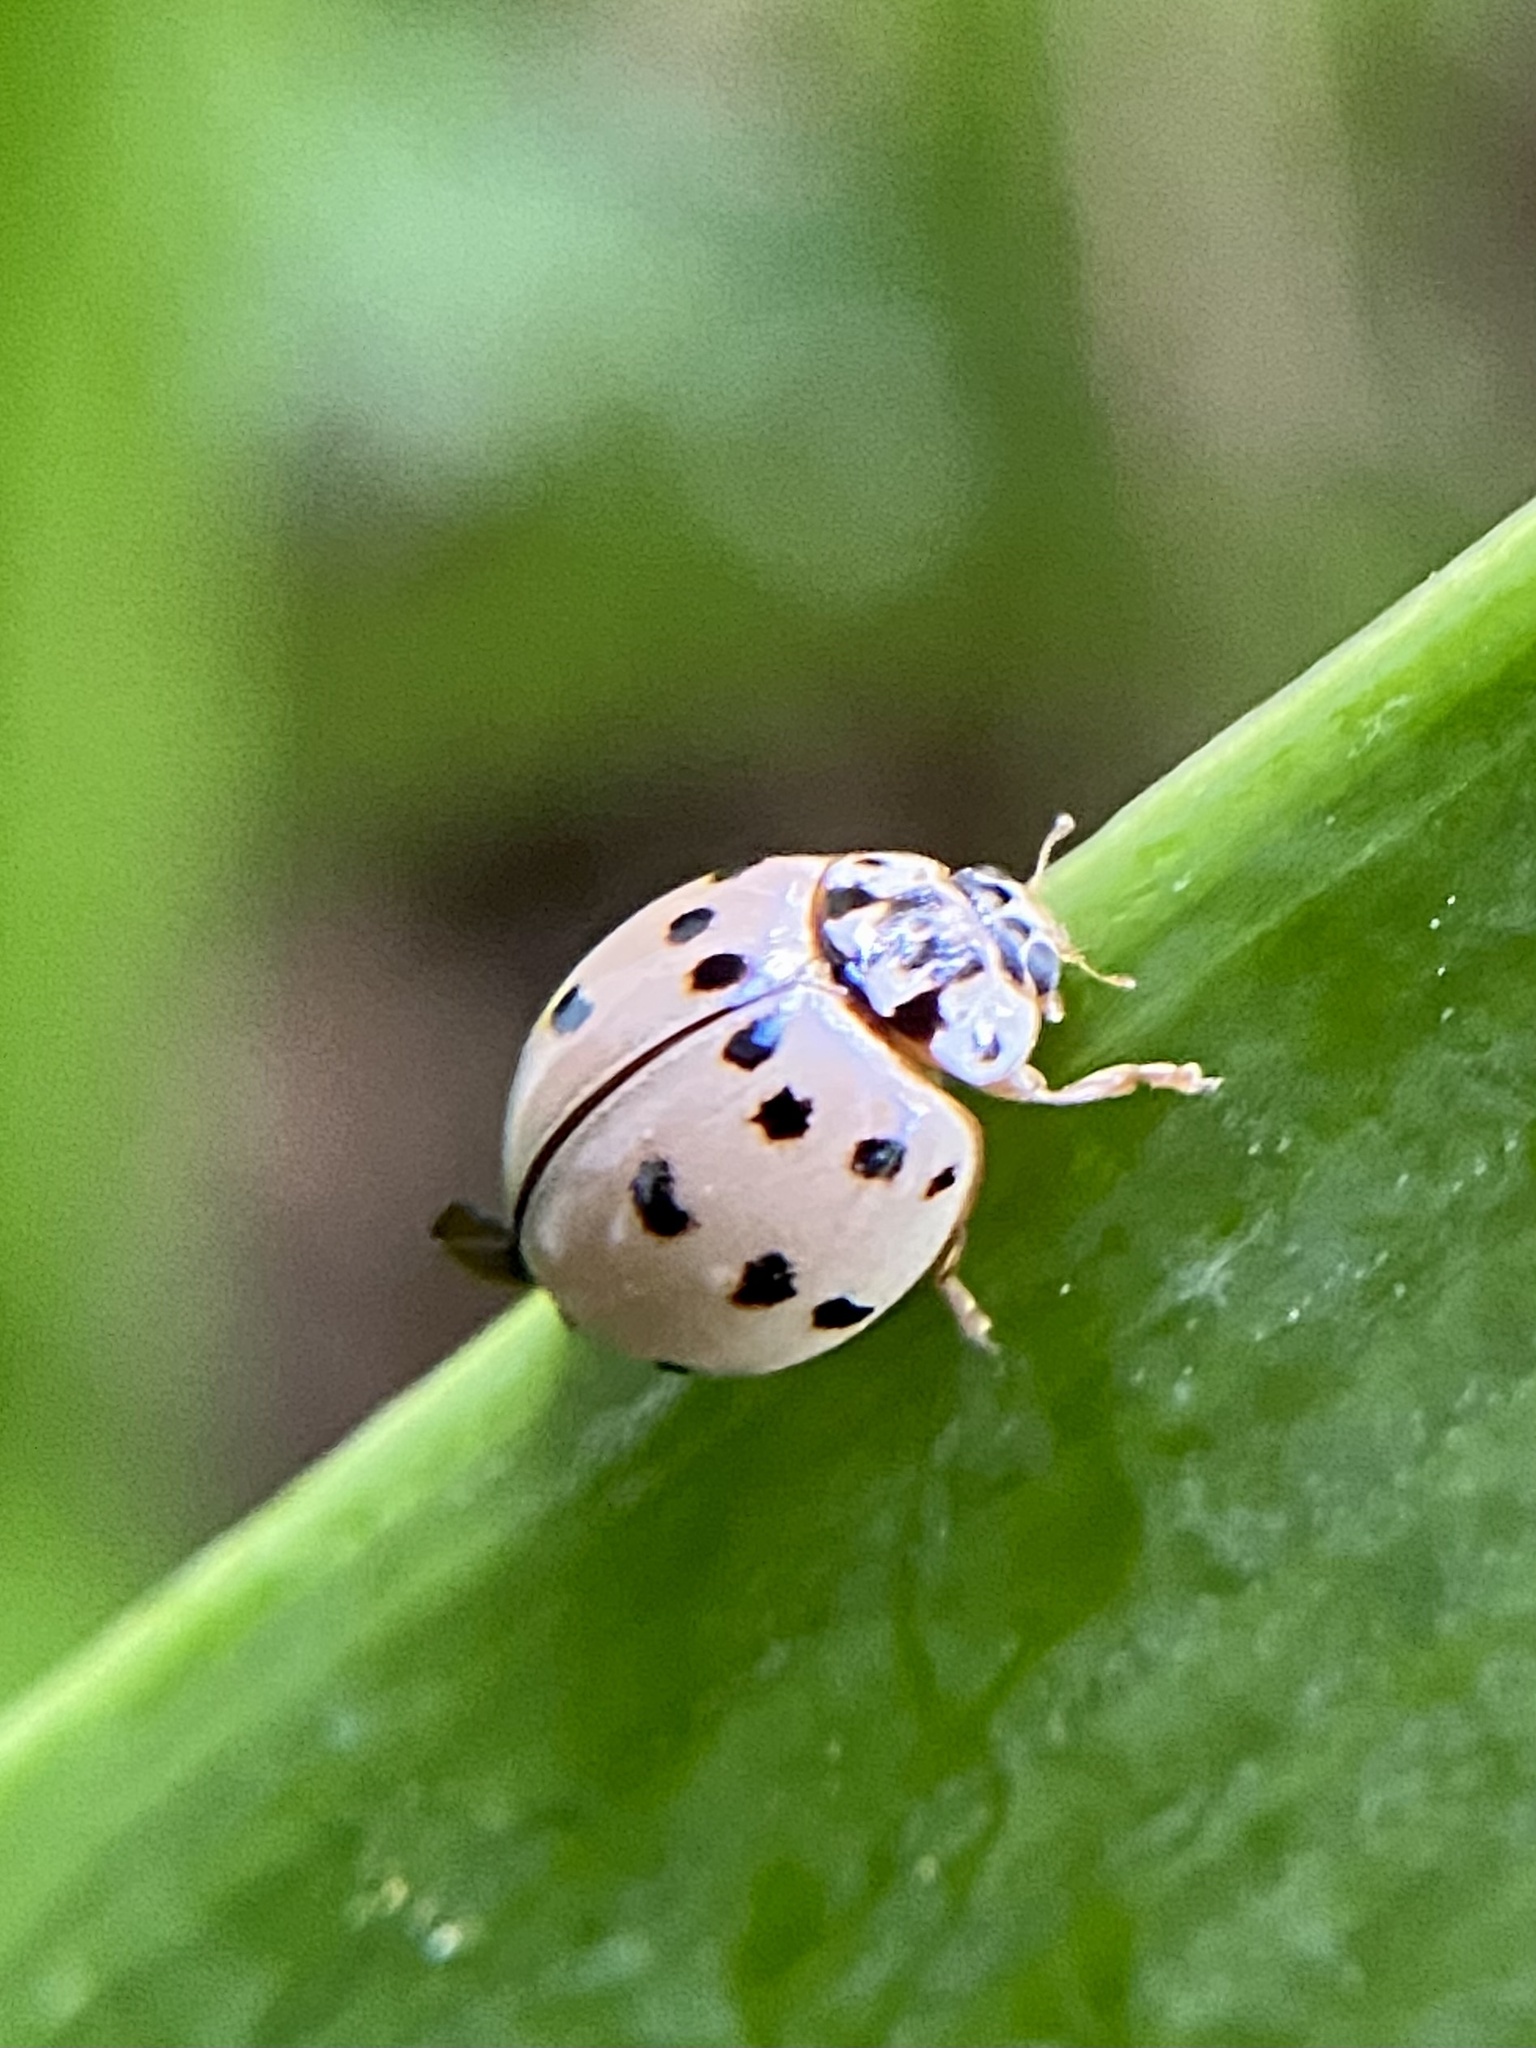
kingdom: Animalia
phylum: Arthropoda
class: Insecta
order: Coleoptera
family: Coccinellidae
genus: Olla
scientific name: Olla v-nigrum
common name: Ashy gray lady beetle
